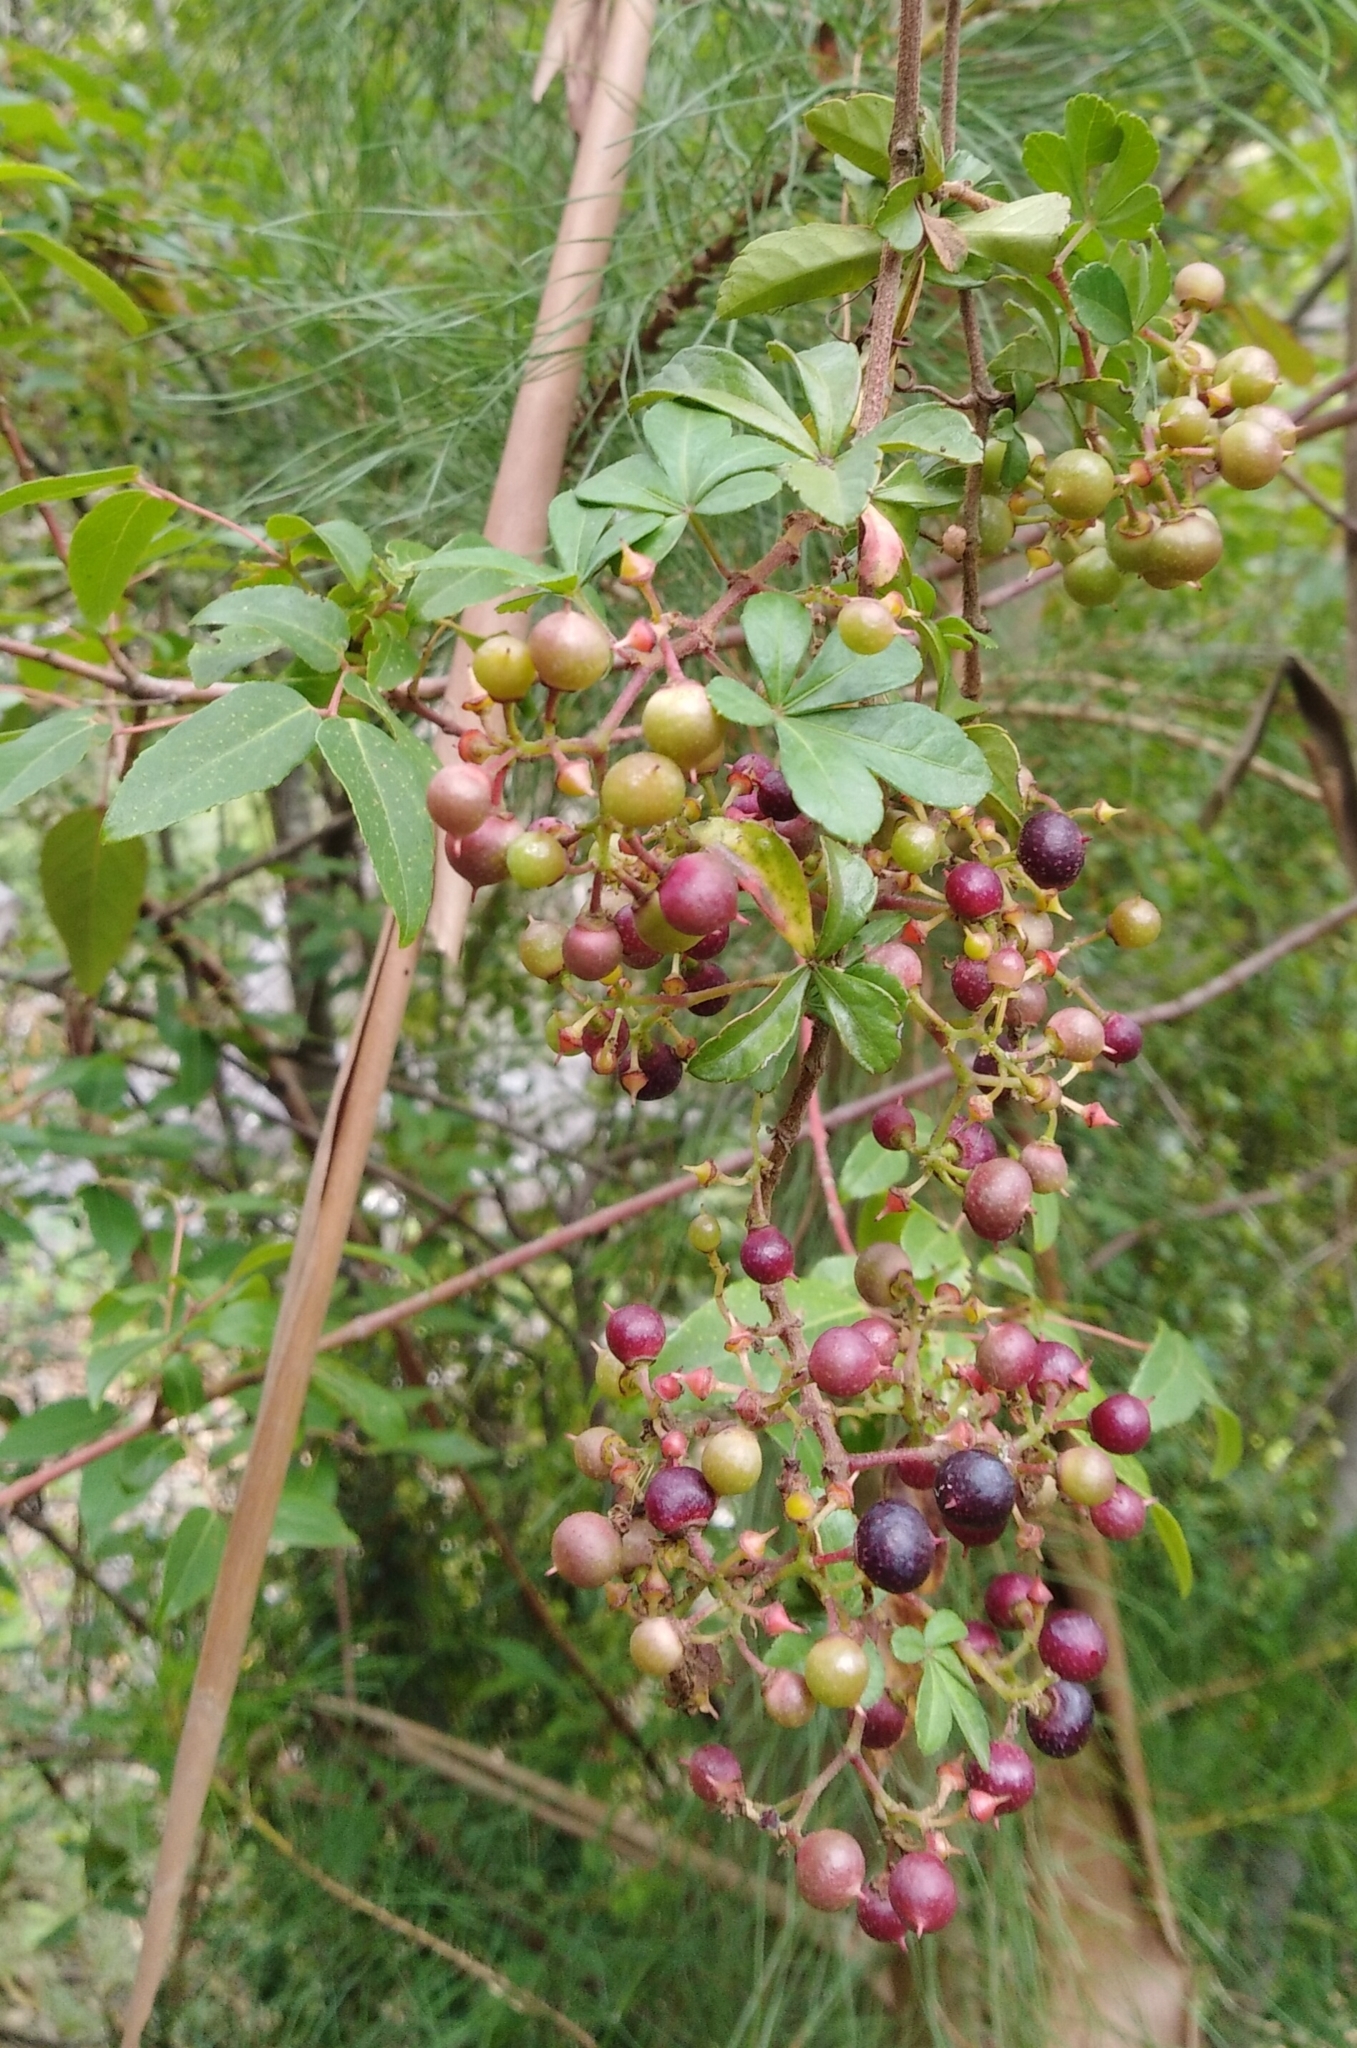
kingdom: Plantae
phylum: Tracheophyta
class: Magnoliopsida
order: Vitales
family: Vitaceae
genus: Clematicissus
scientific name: Clematicissus striata
